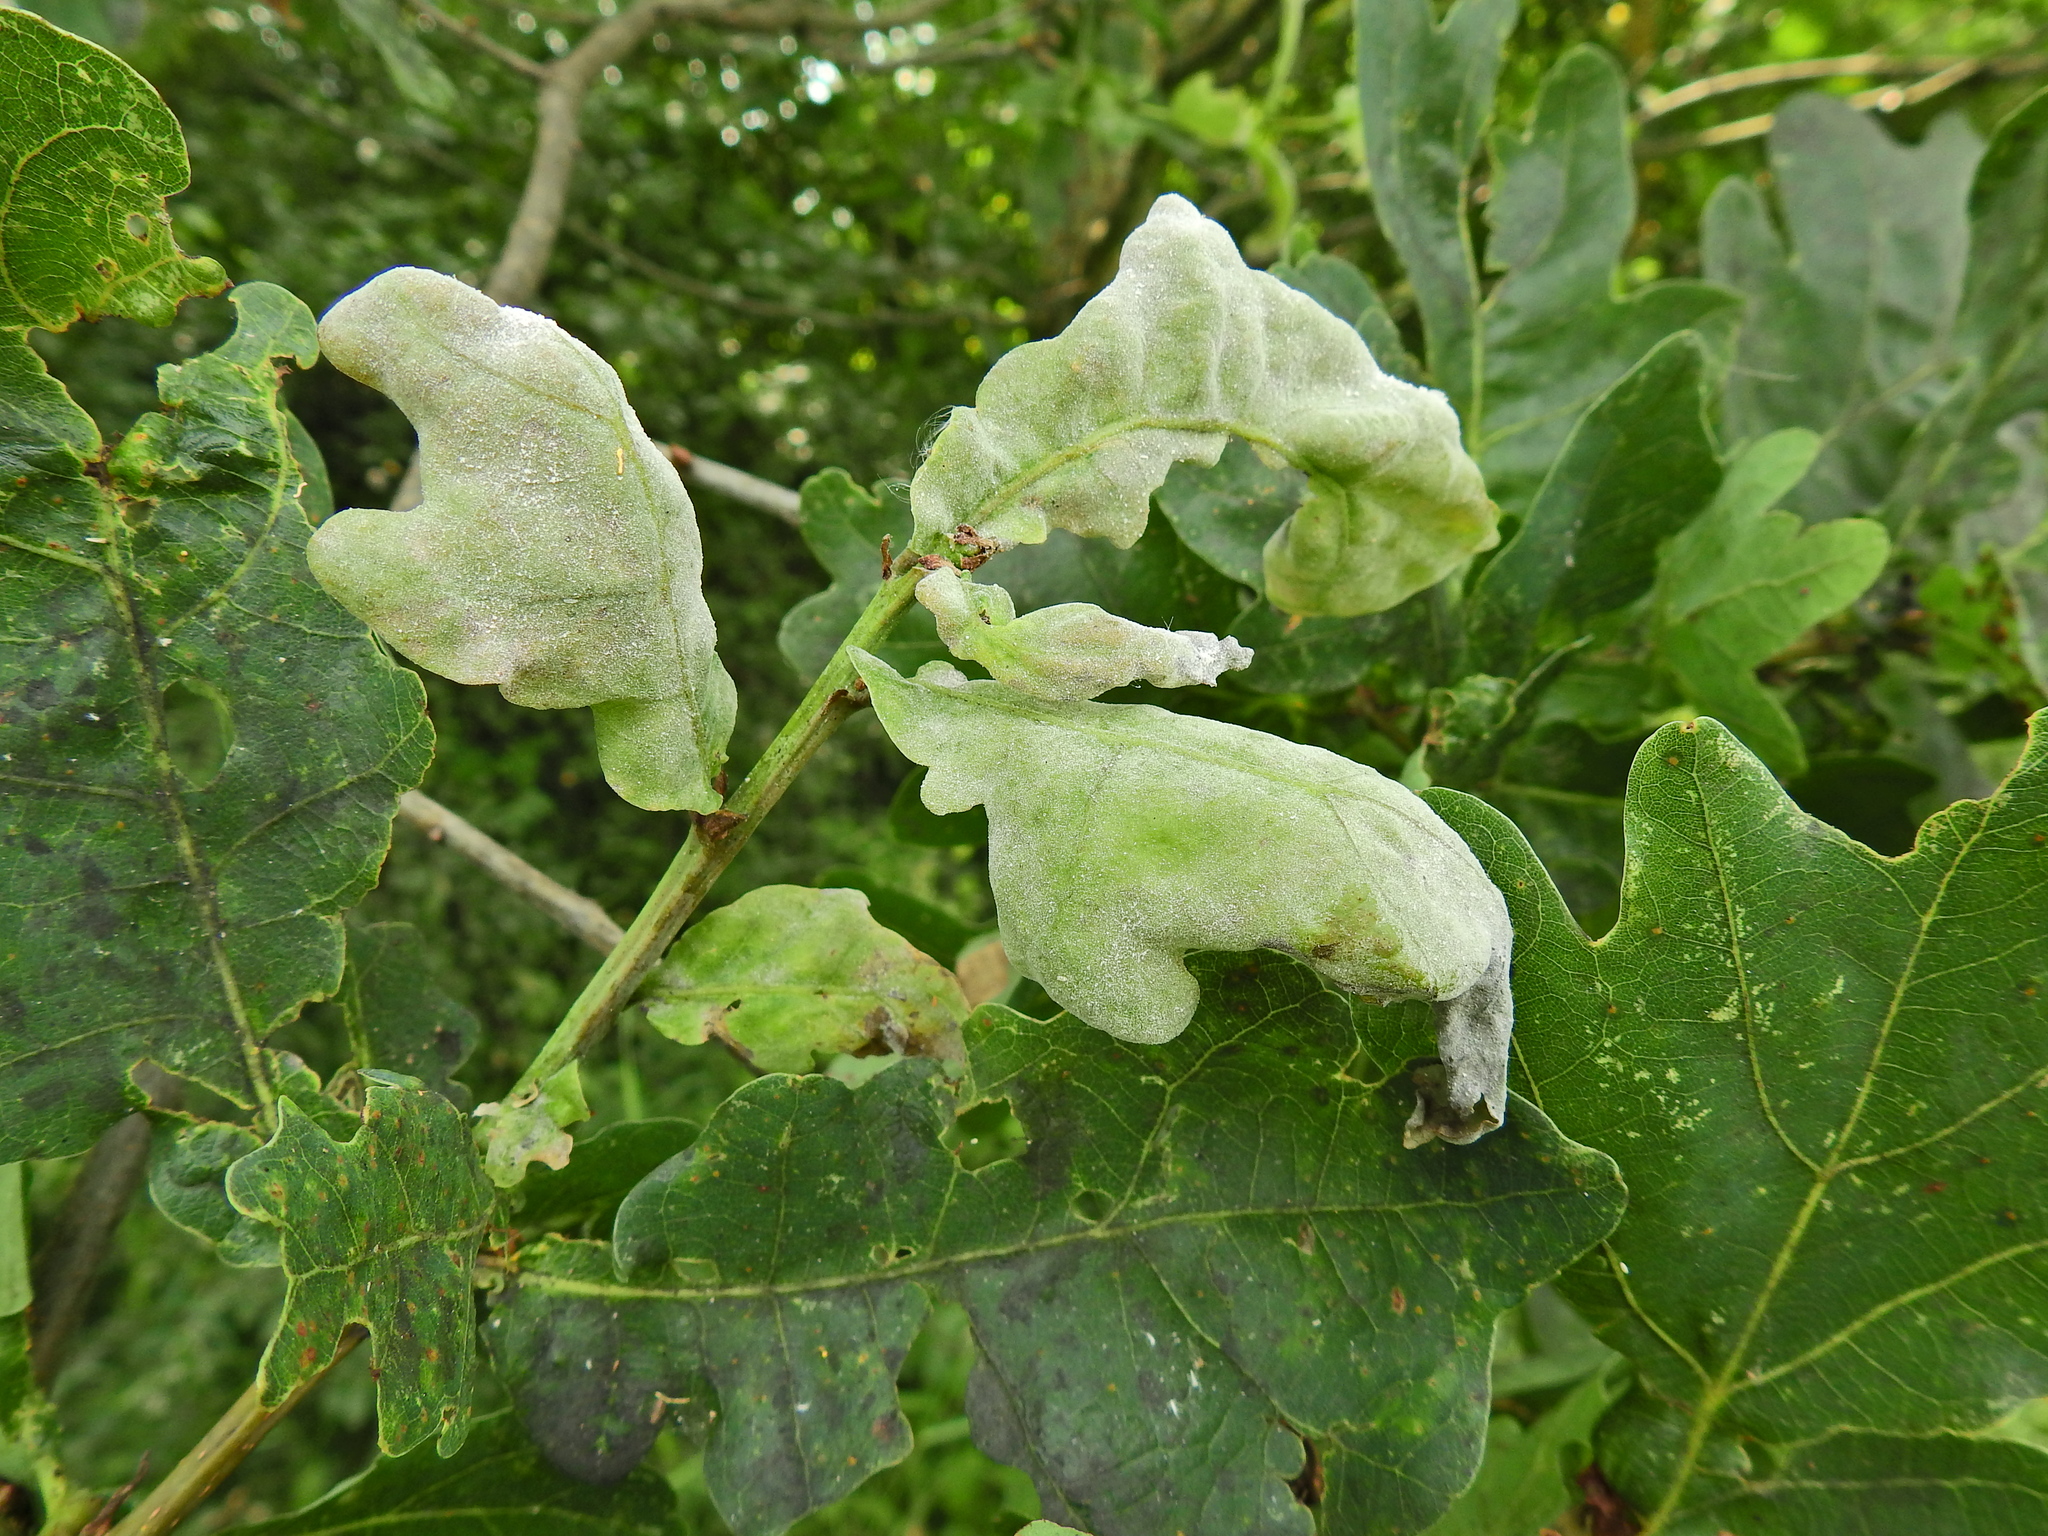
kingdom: Fungi
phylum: Ascomycota
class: Leotiomycetes
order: Helotiales
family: Erysiphaceae
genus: Erysiphe
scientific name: Erysiphe alphitoides
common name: Oak mildew
